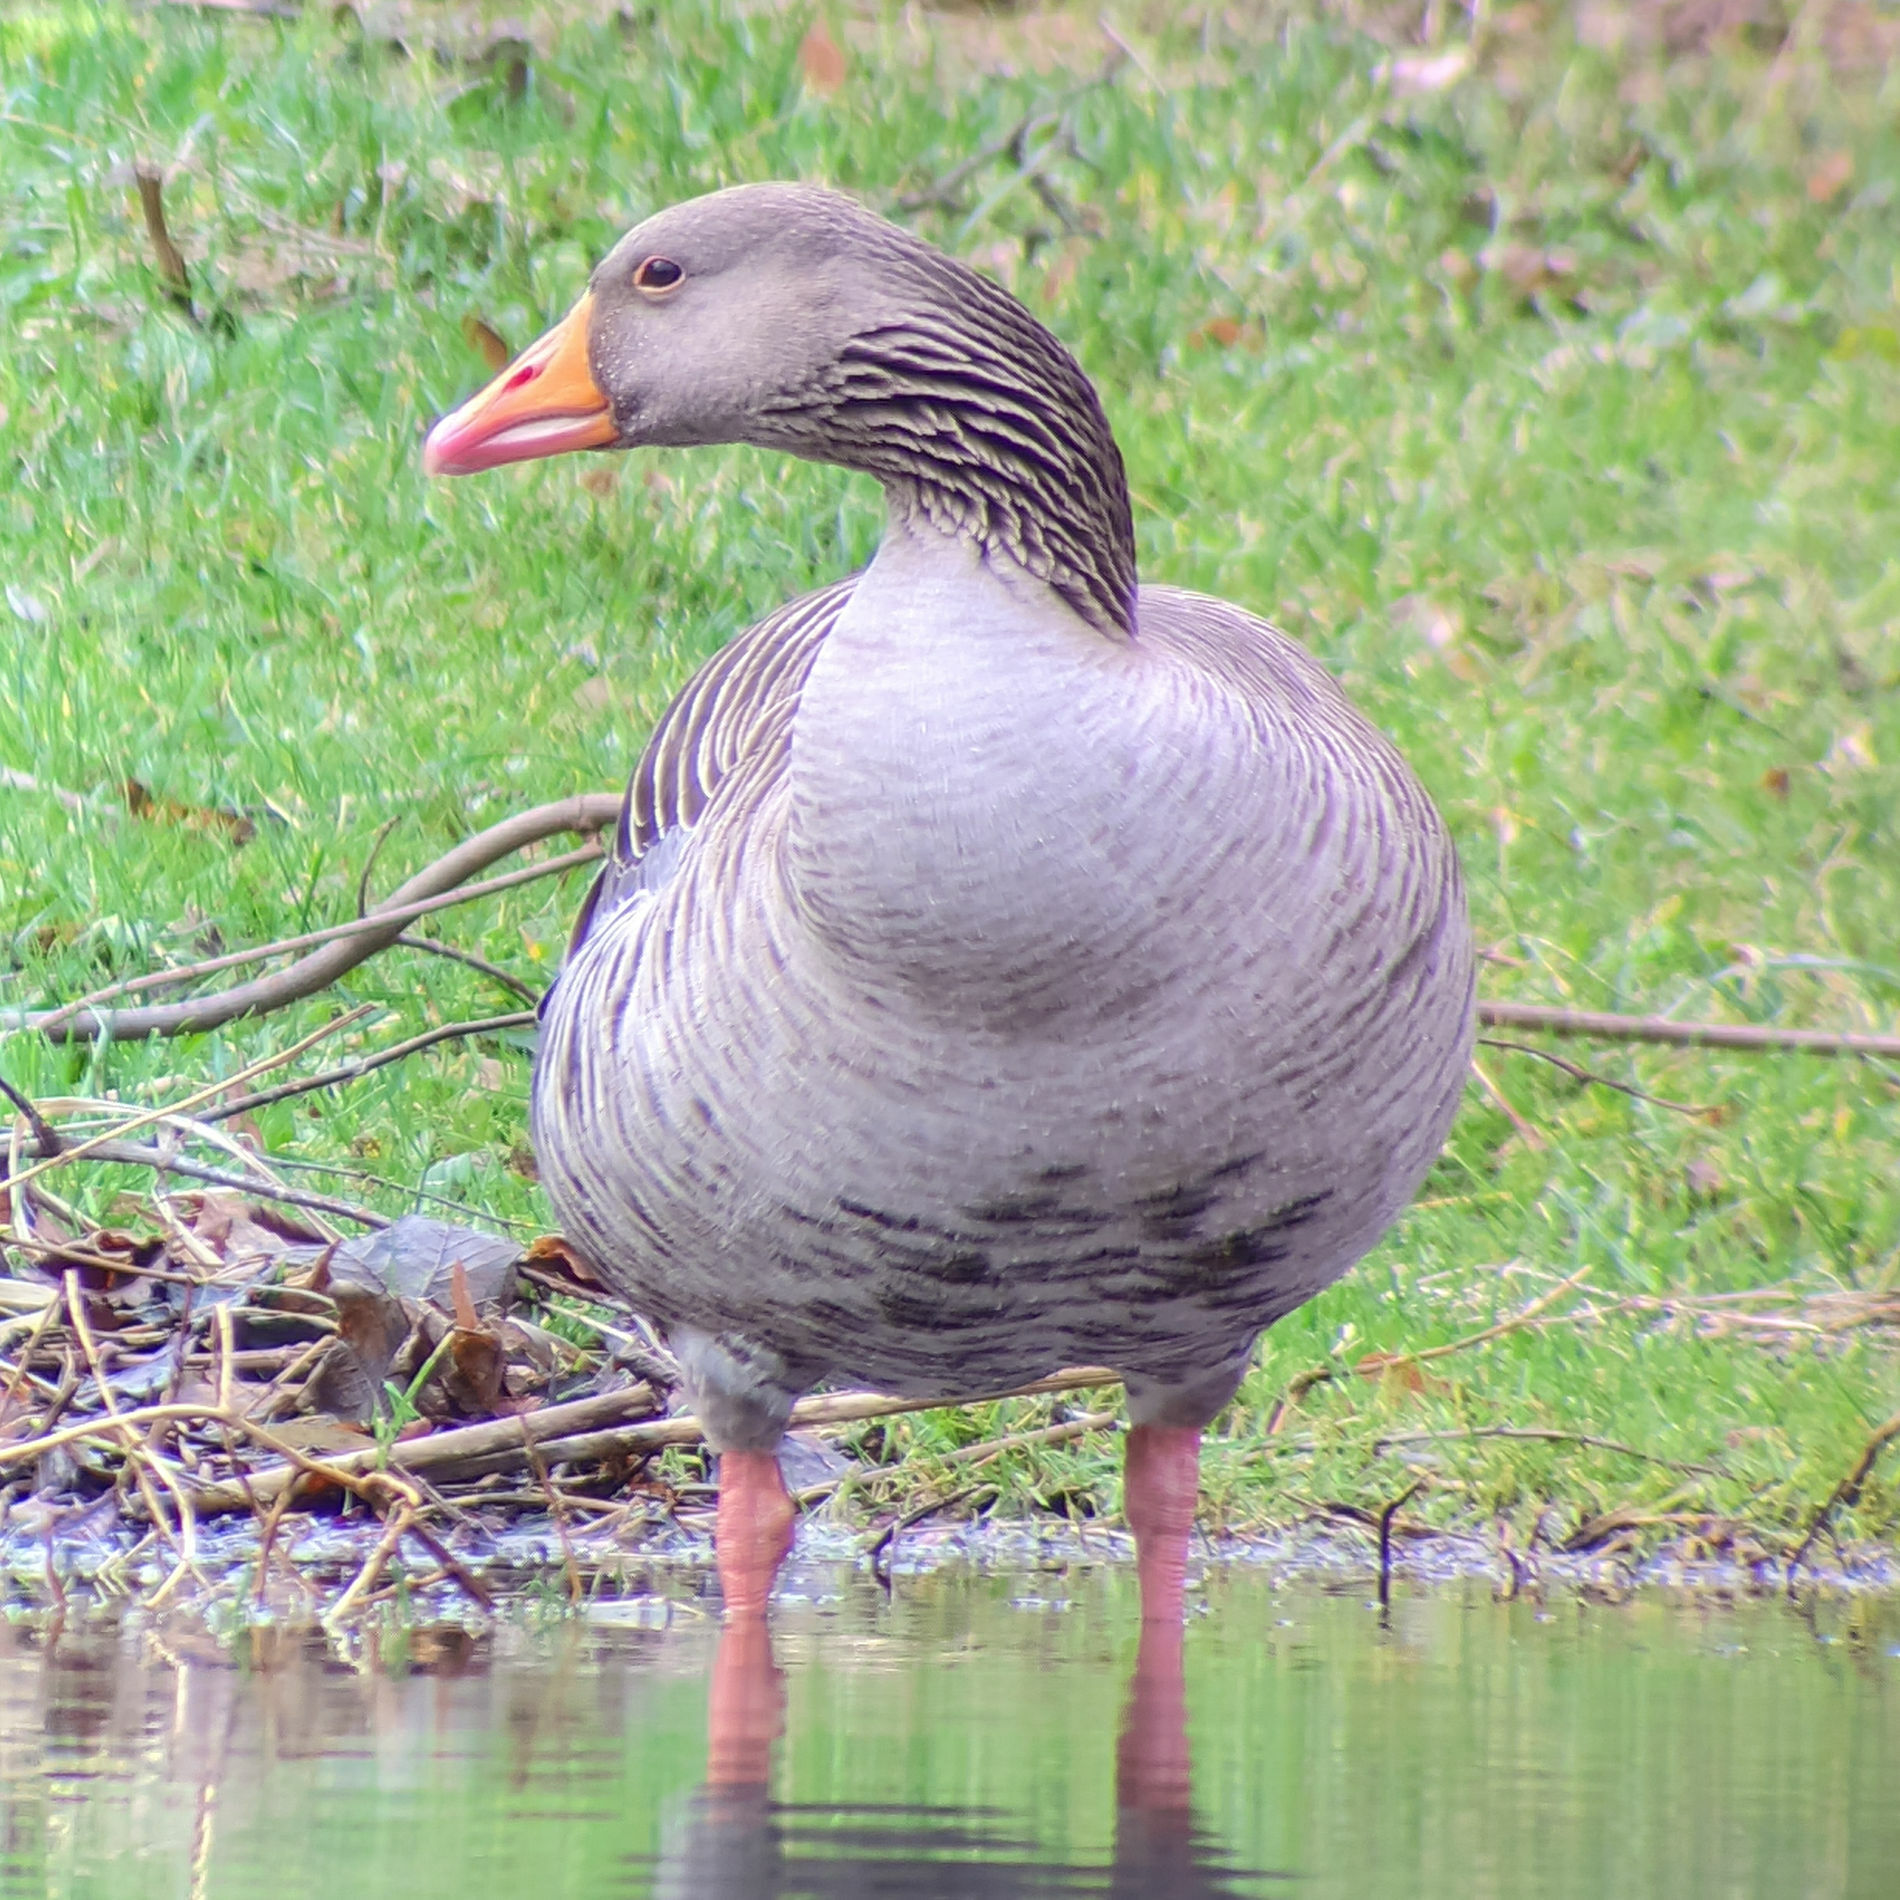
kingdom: Animalia
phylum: Chordata
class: Aves
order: Anseriformes
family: Anatidae
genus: Anser
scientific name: Anser anser
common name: Greylag goose
